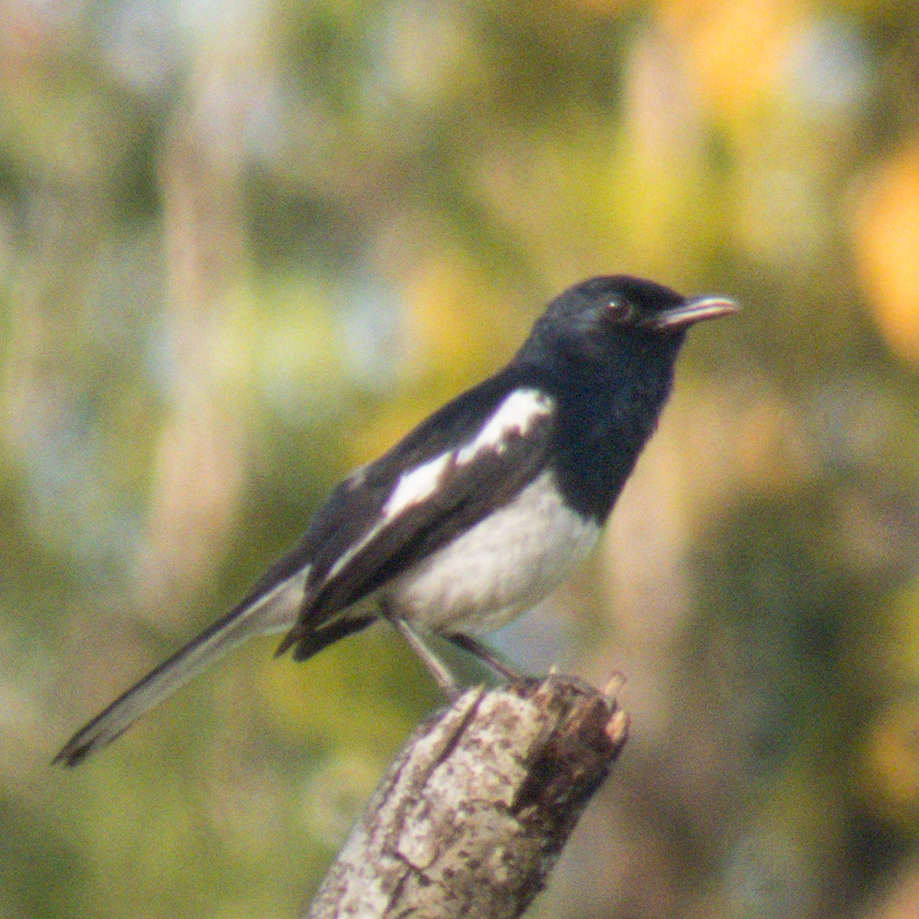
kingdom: Animalia
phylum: Chordata
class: Aves
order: Passeriformes
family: Muscicapidae
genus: Copsychus
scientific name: Copsychus saularis
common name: Oriental magpie-robin
